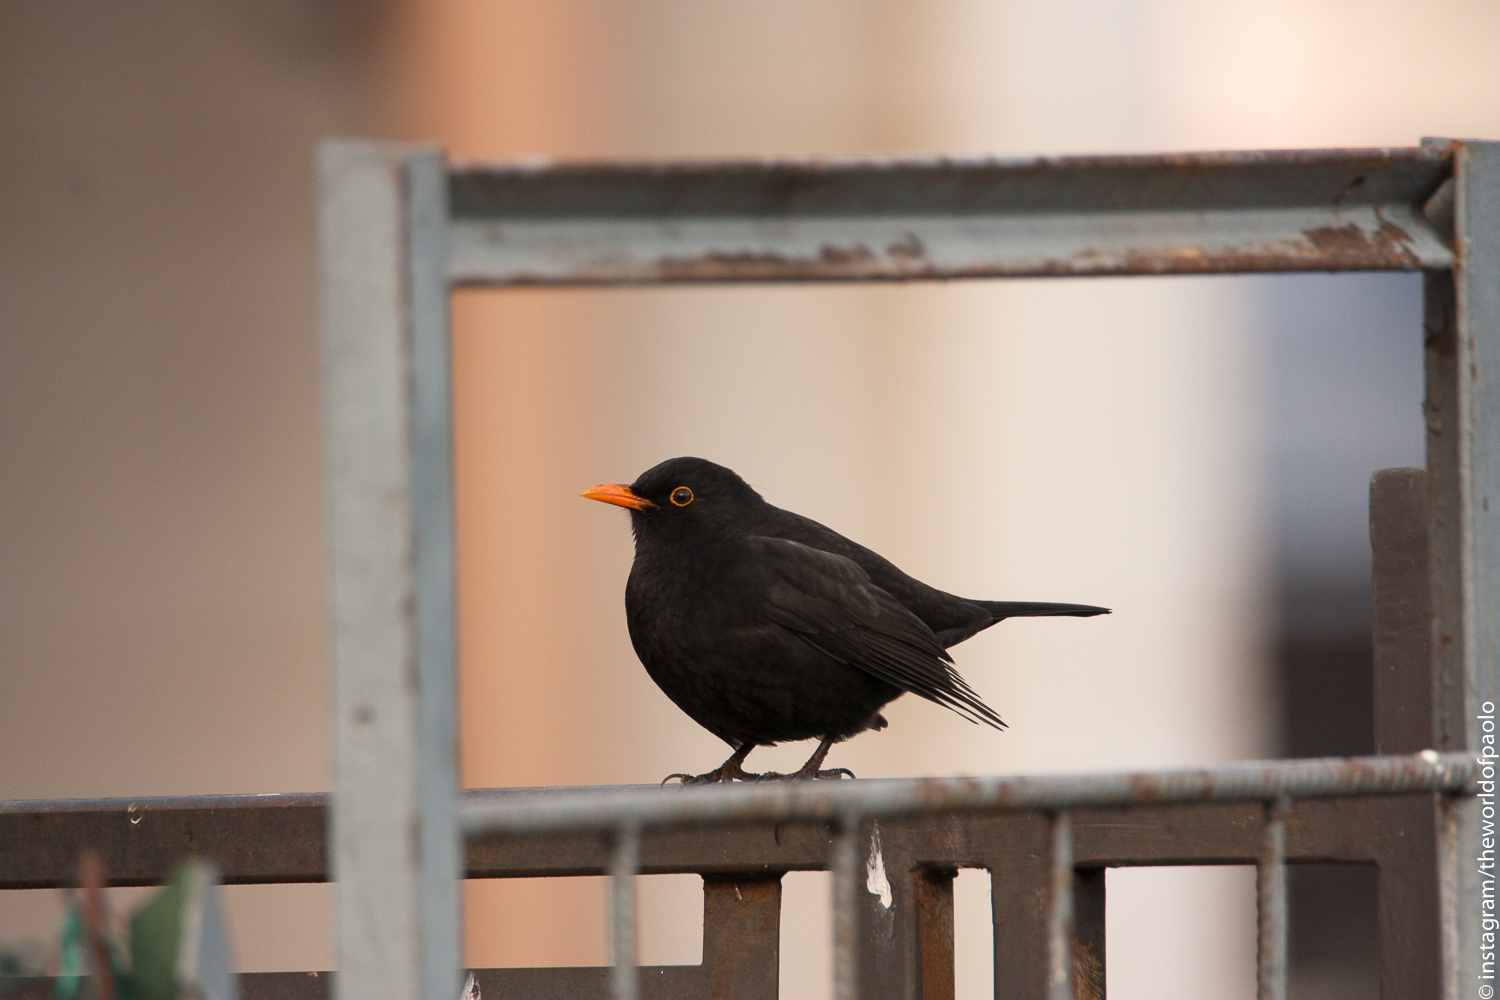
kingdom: Animalia
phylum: Chordata
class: Aves
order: Passeriformes
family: Turdidae
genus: Turdus
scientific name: Turdus merula
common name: Common blackbird
